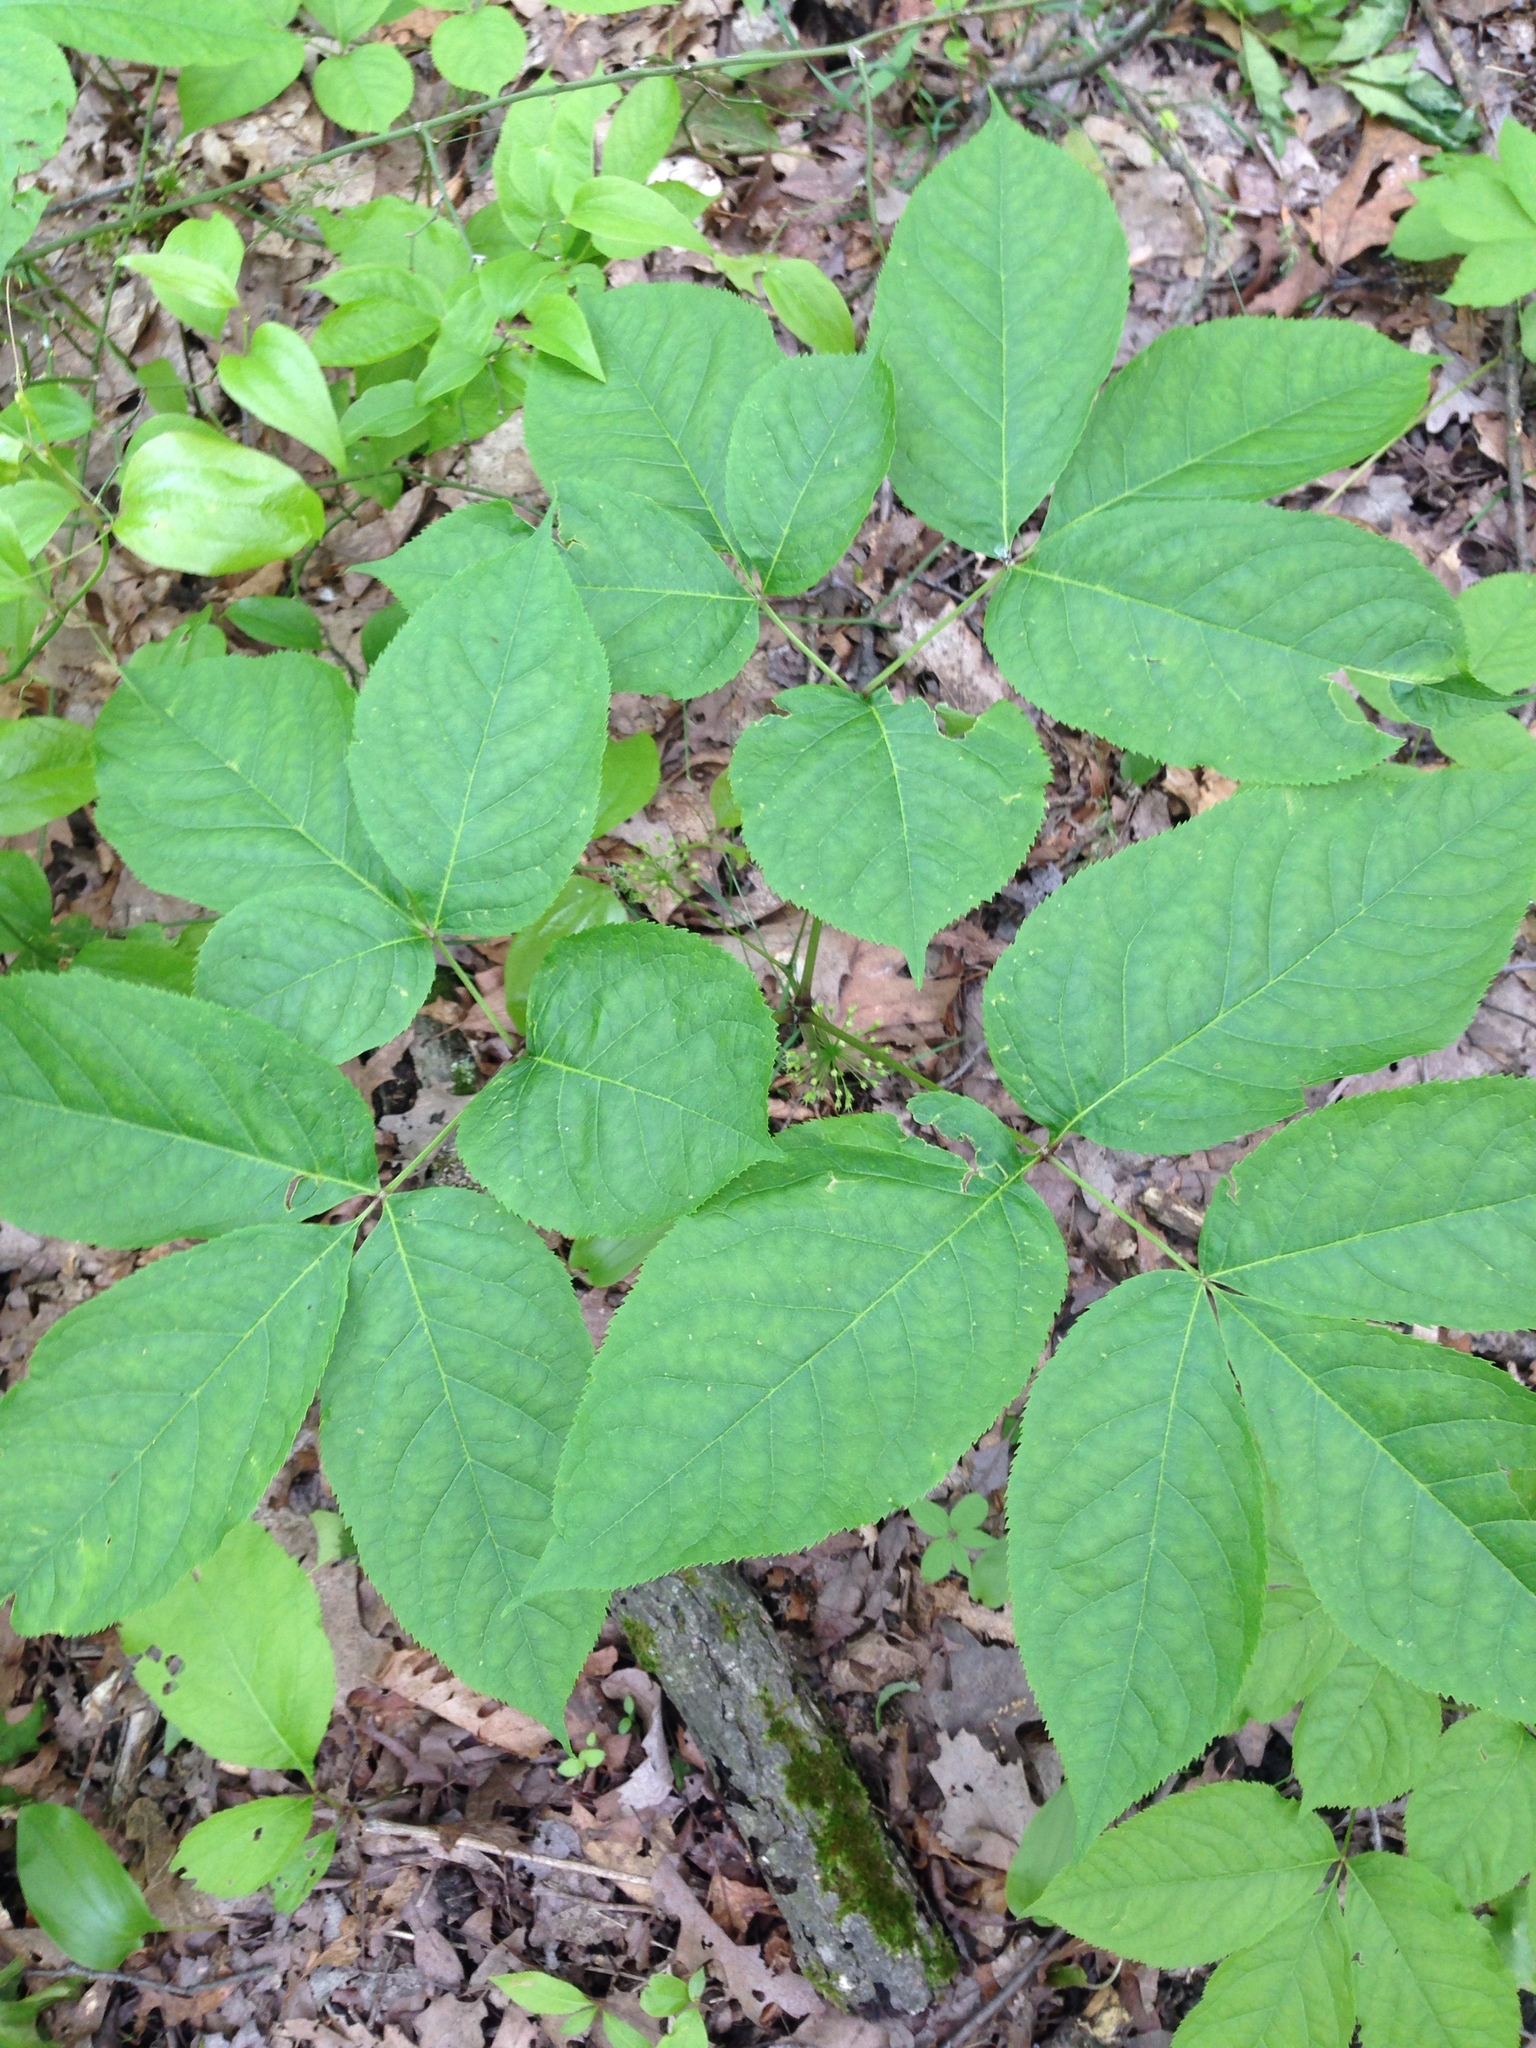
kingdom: Plantae
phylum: Tracheophyta
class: Magnoliopsida
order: Apiales
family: Araliaceae
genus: Aralia
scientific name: Aralia nudicaulis
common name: Wild sarsaparilla
